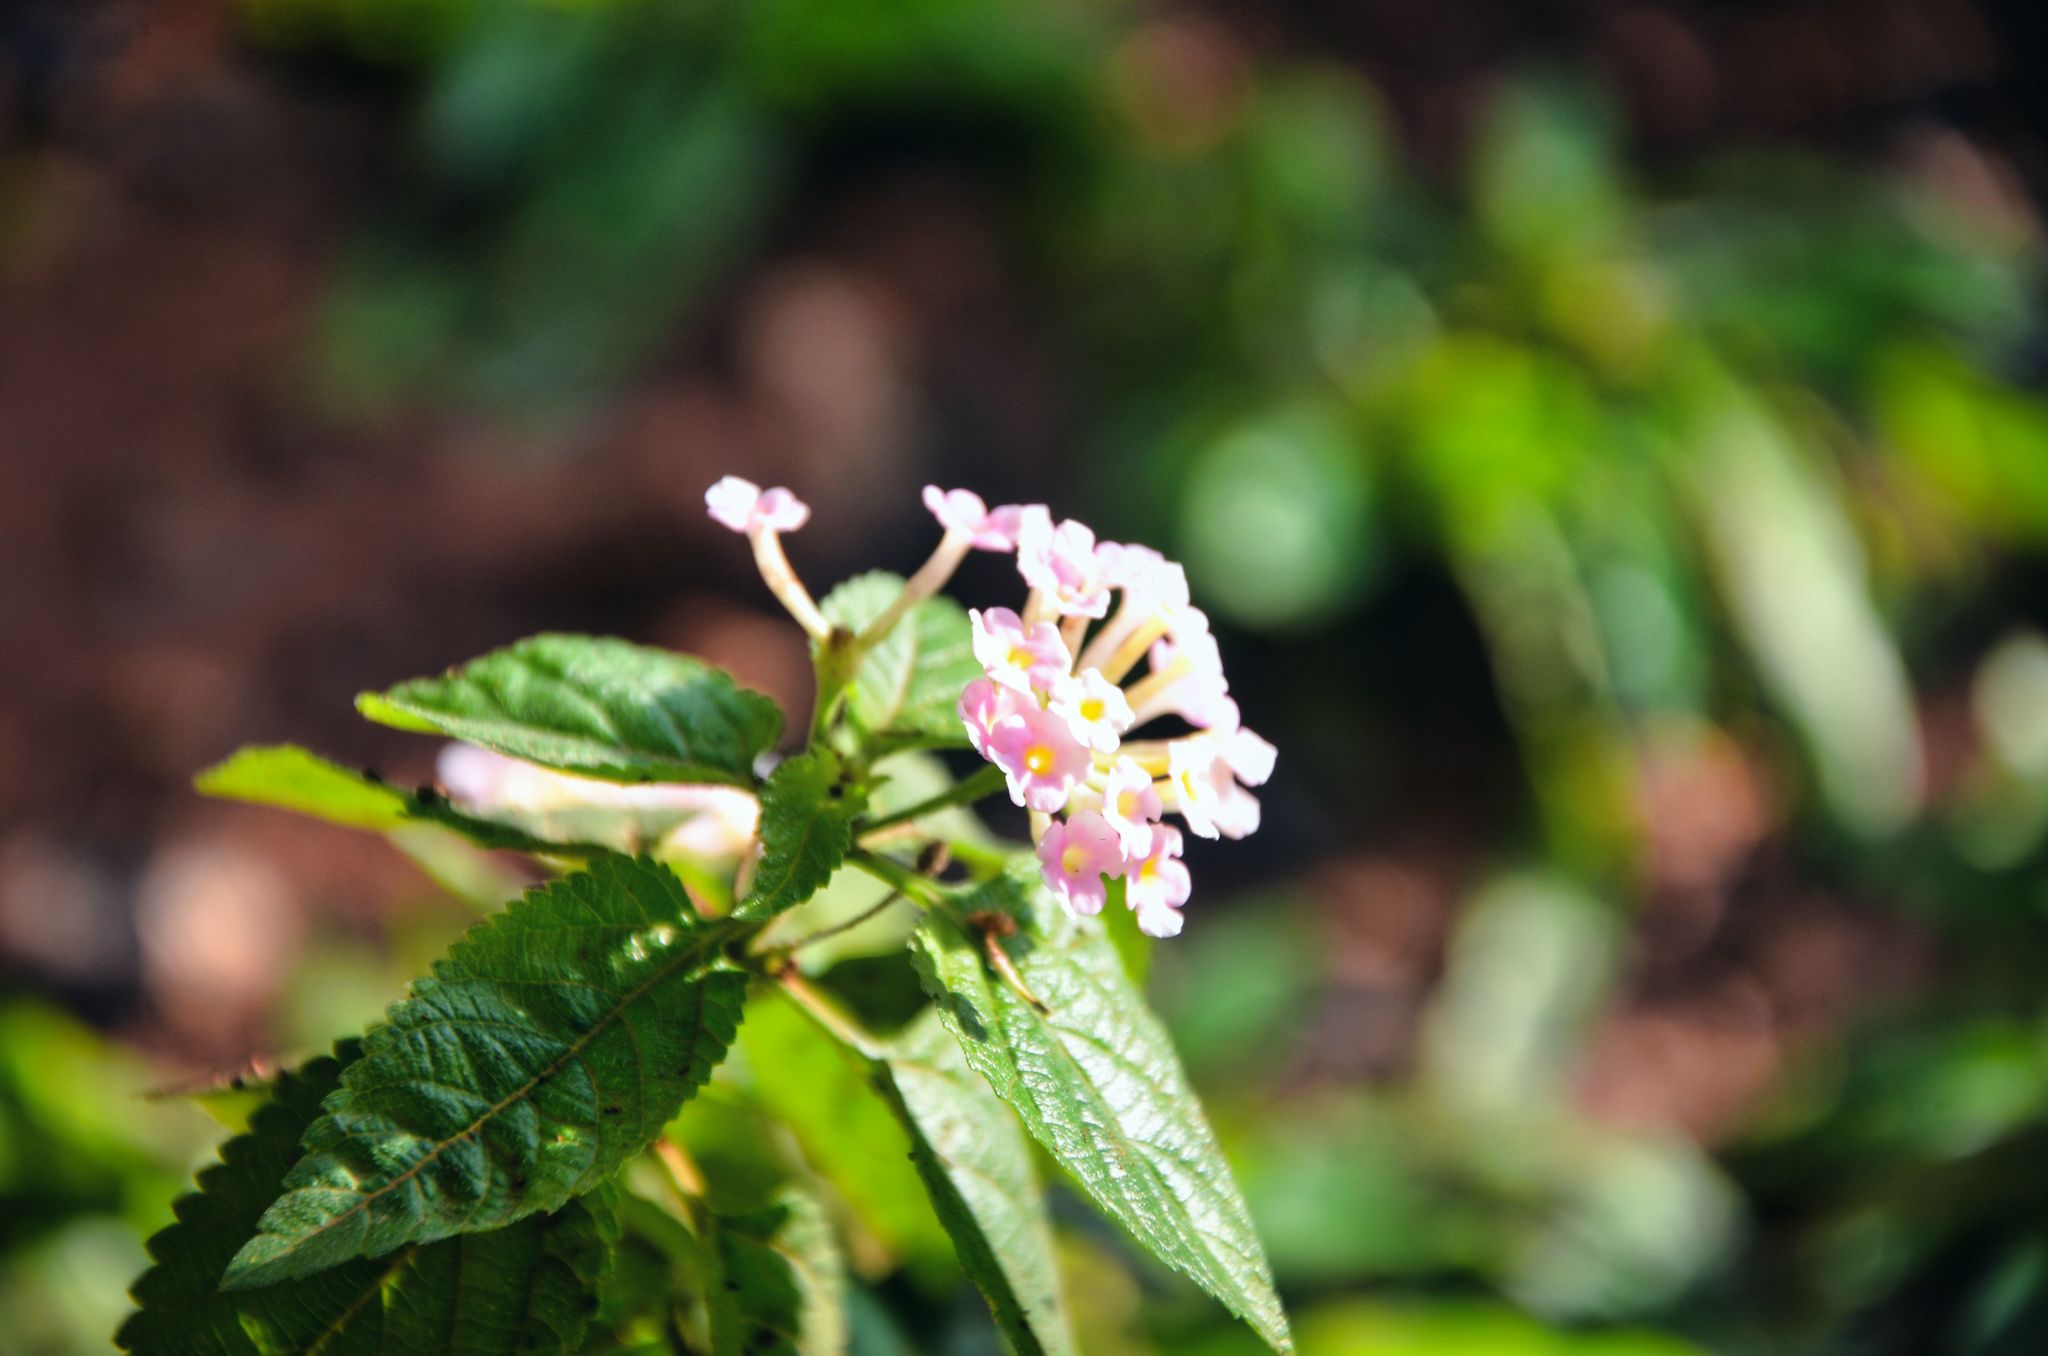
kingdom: Plantae
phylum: Tracheophyta
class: Magnoliopsida
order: Lamiales
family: Verbenaceae
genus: Lantana
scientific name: Lantana camara
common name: Lantana
